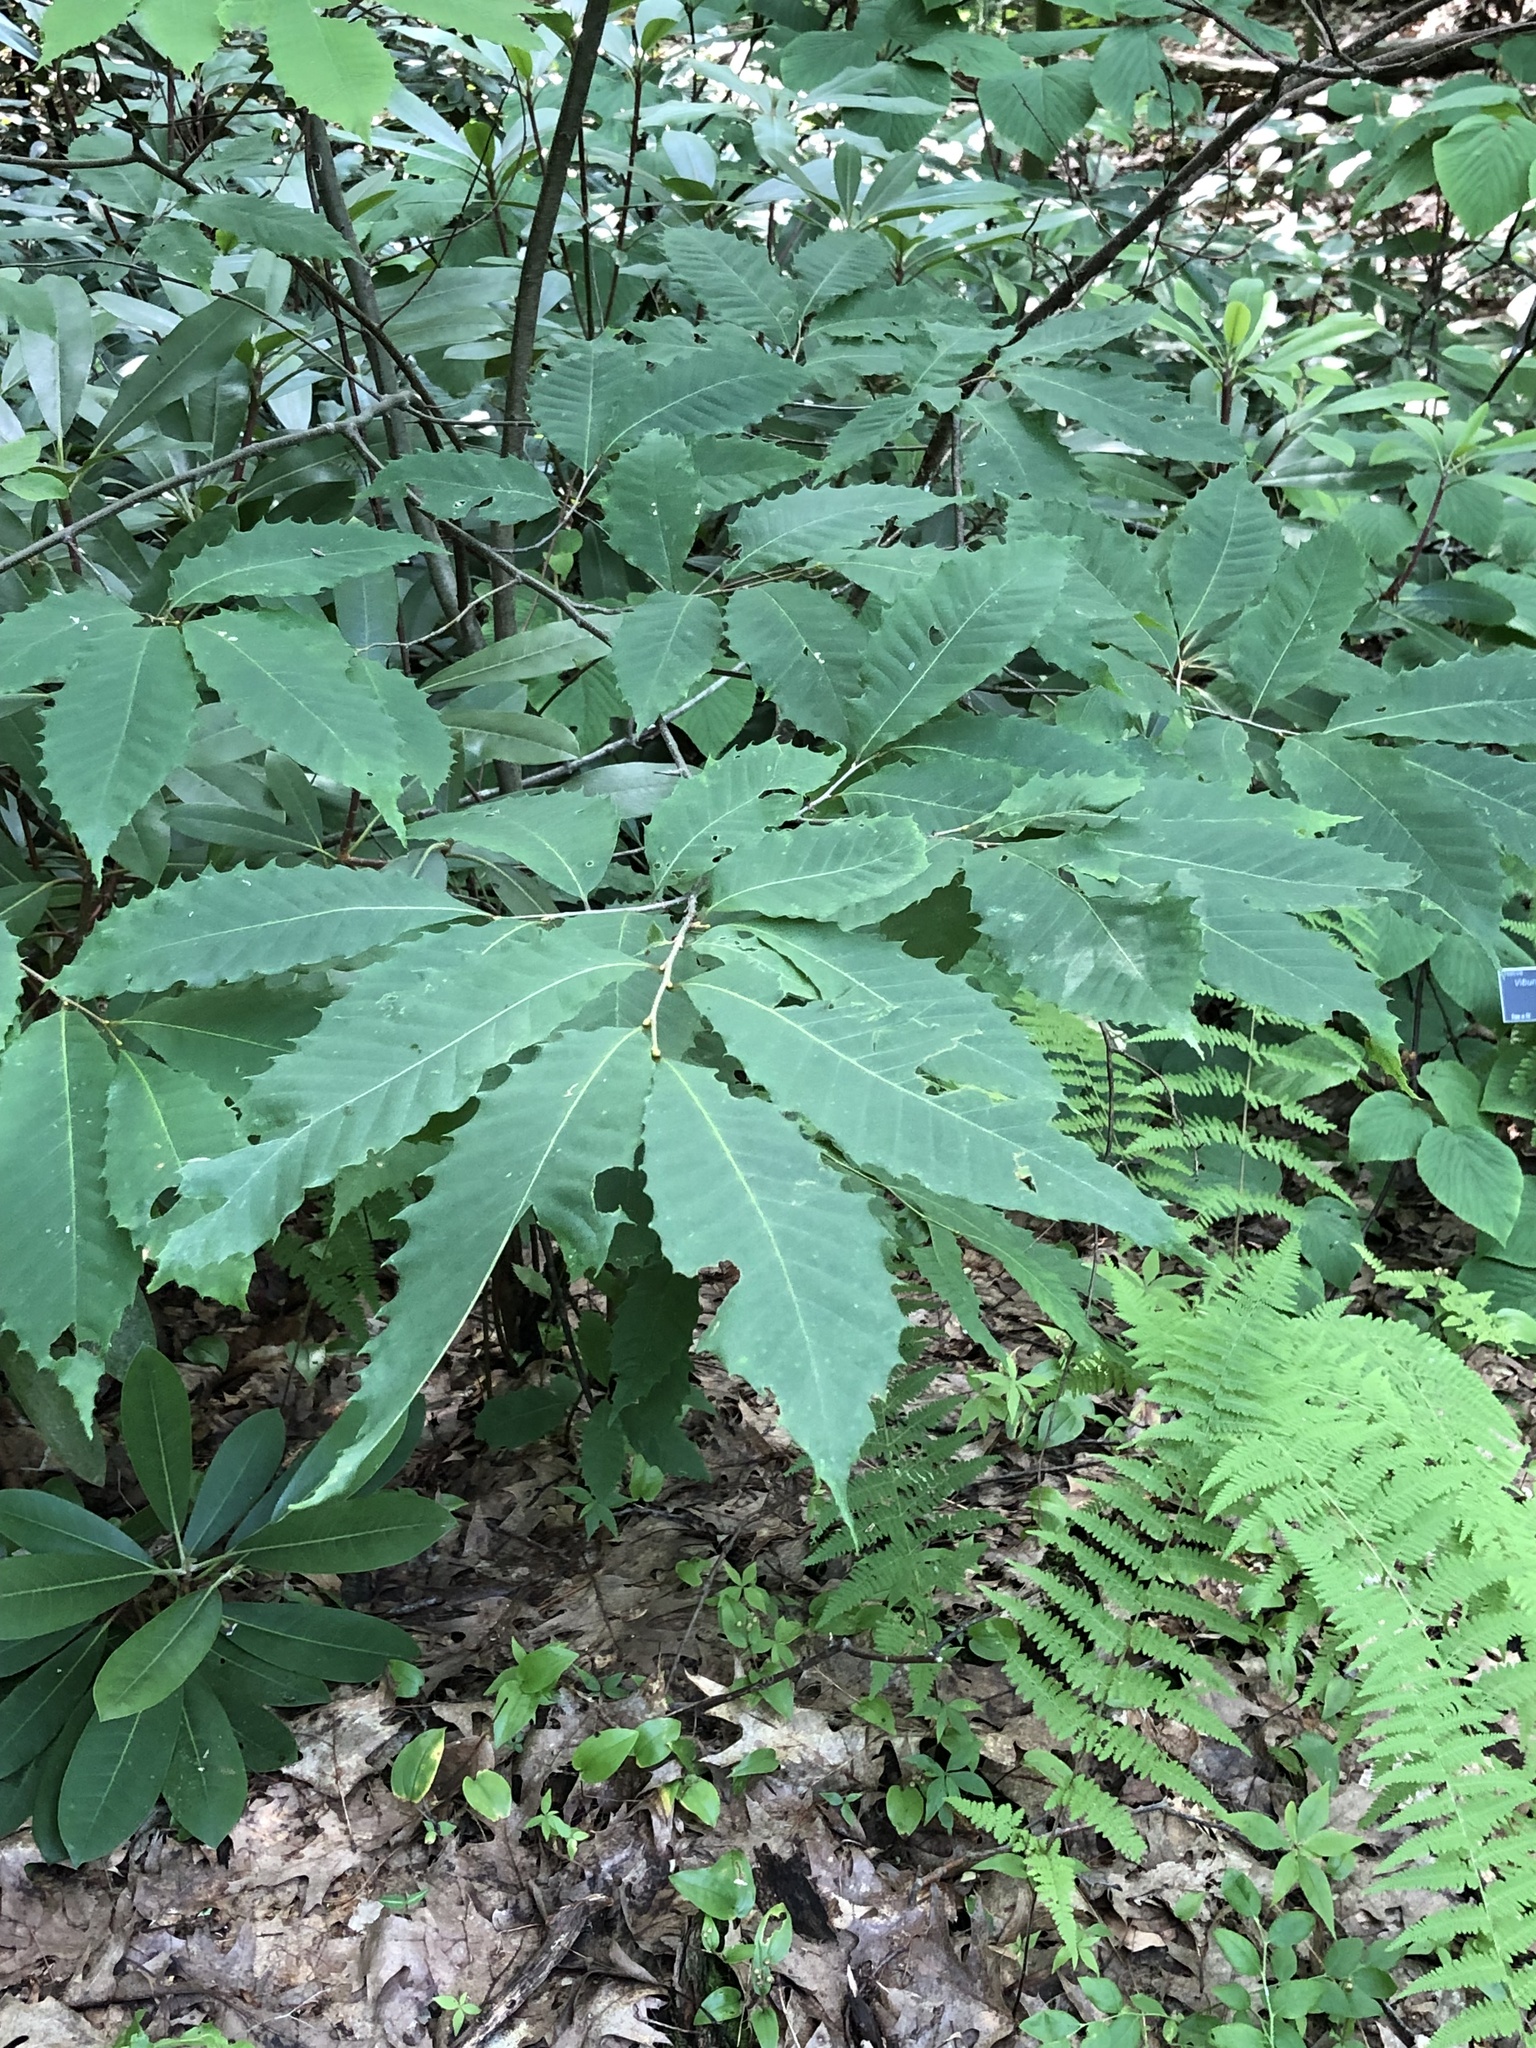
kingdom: Plantae
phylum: Tracheophyta
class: Magnoliopsida
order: Fagales
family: Fagaceae
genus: Castanea
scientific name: Castanea dentata
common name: American chestnut
